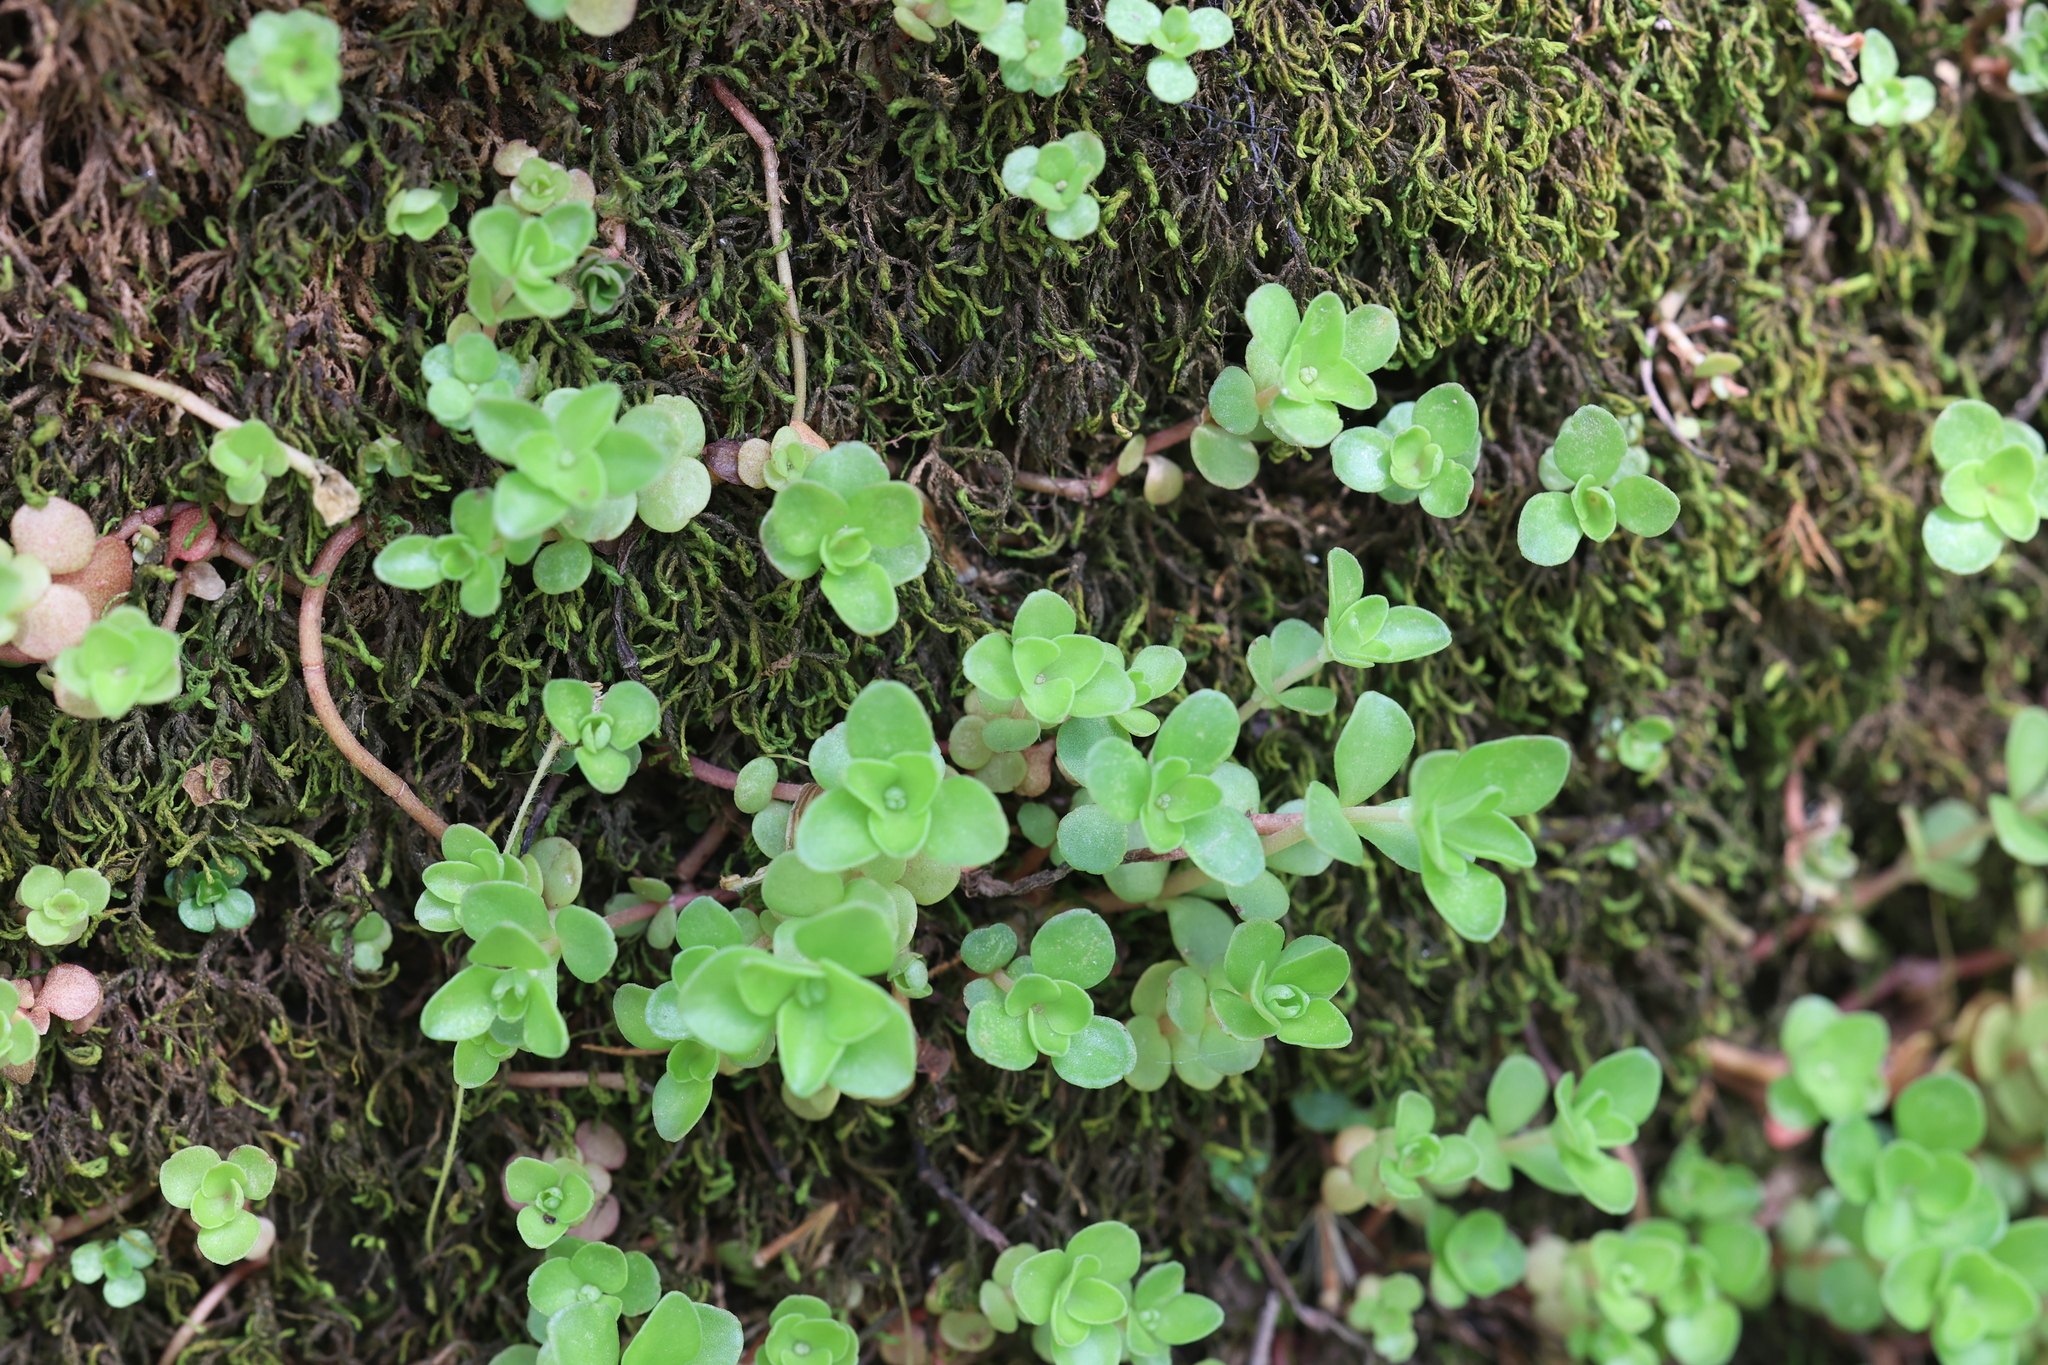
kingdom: Plantae
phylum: Tracheophyta
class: Magnoliopsida
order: Saxifragales
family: Crassulaceae
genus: Sedum
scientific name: Sedum ternatum
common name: Wild stonecrop
